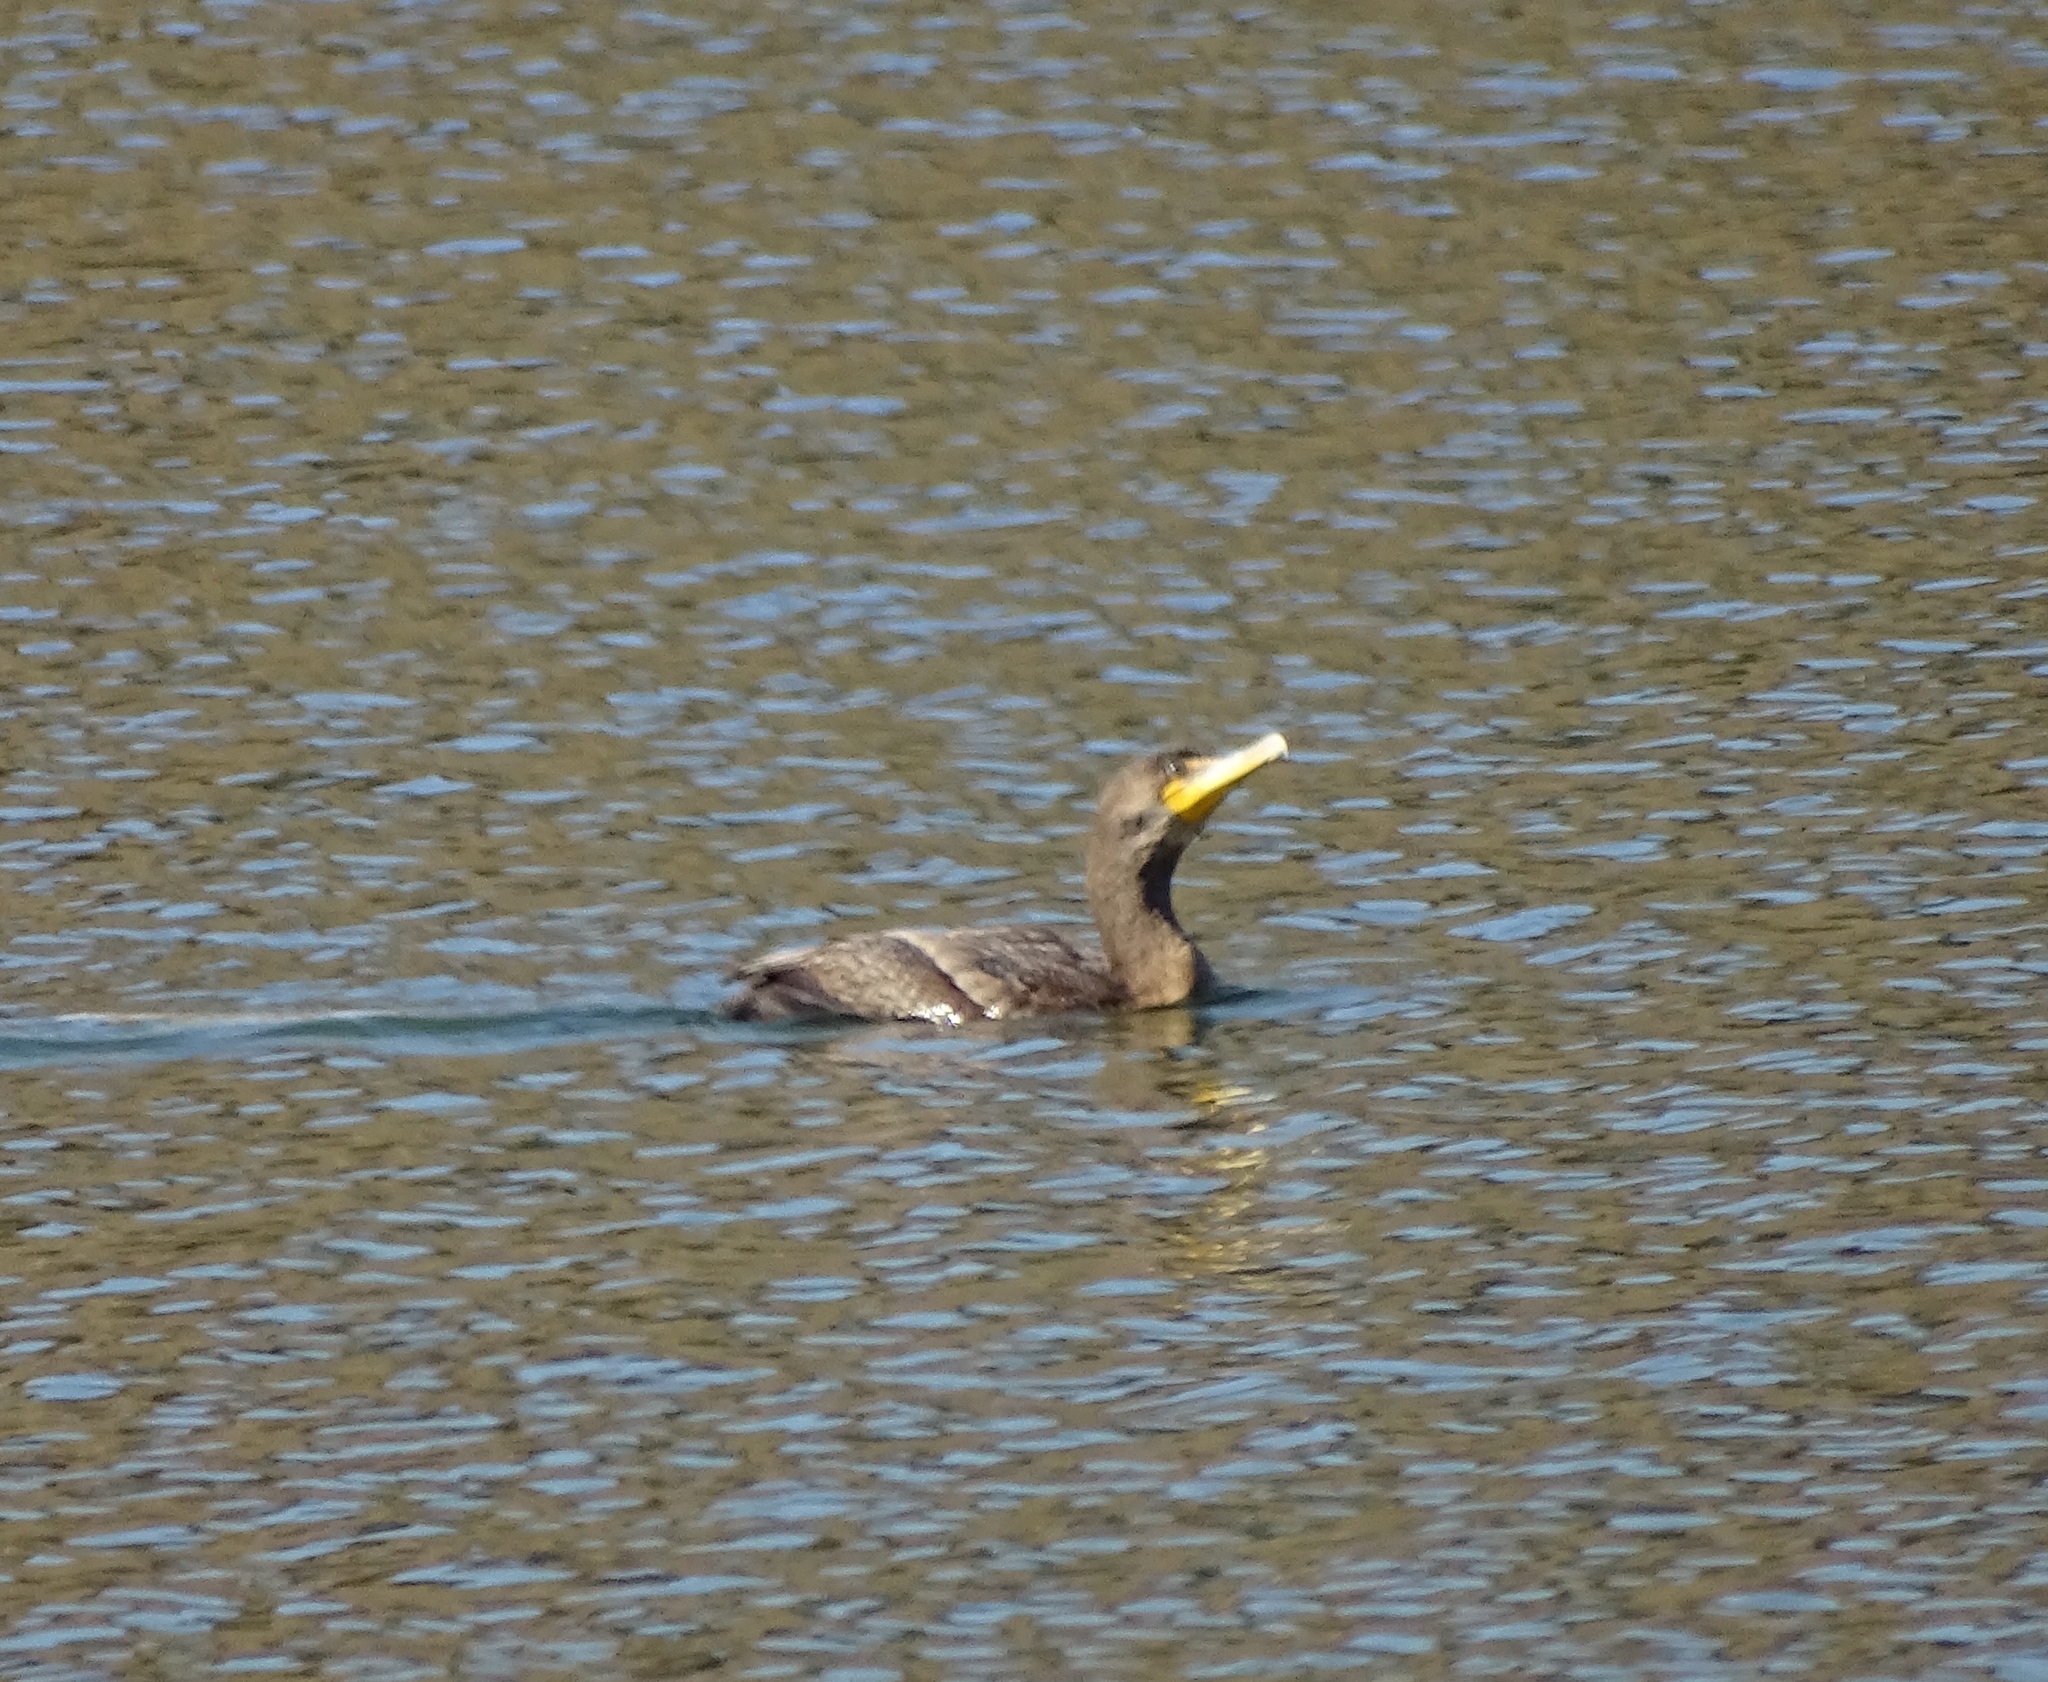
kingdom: Animalia
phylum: Chordata
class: Aves
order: Suliformes
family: Phalacrocoracidae
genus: Phalacrocorax
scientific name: Phalacrocorax auritus
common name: Double-crested cormorant
